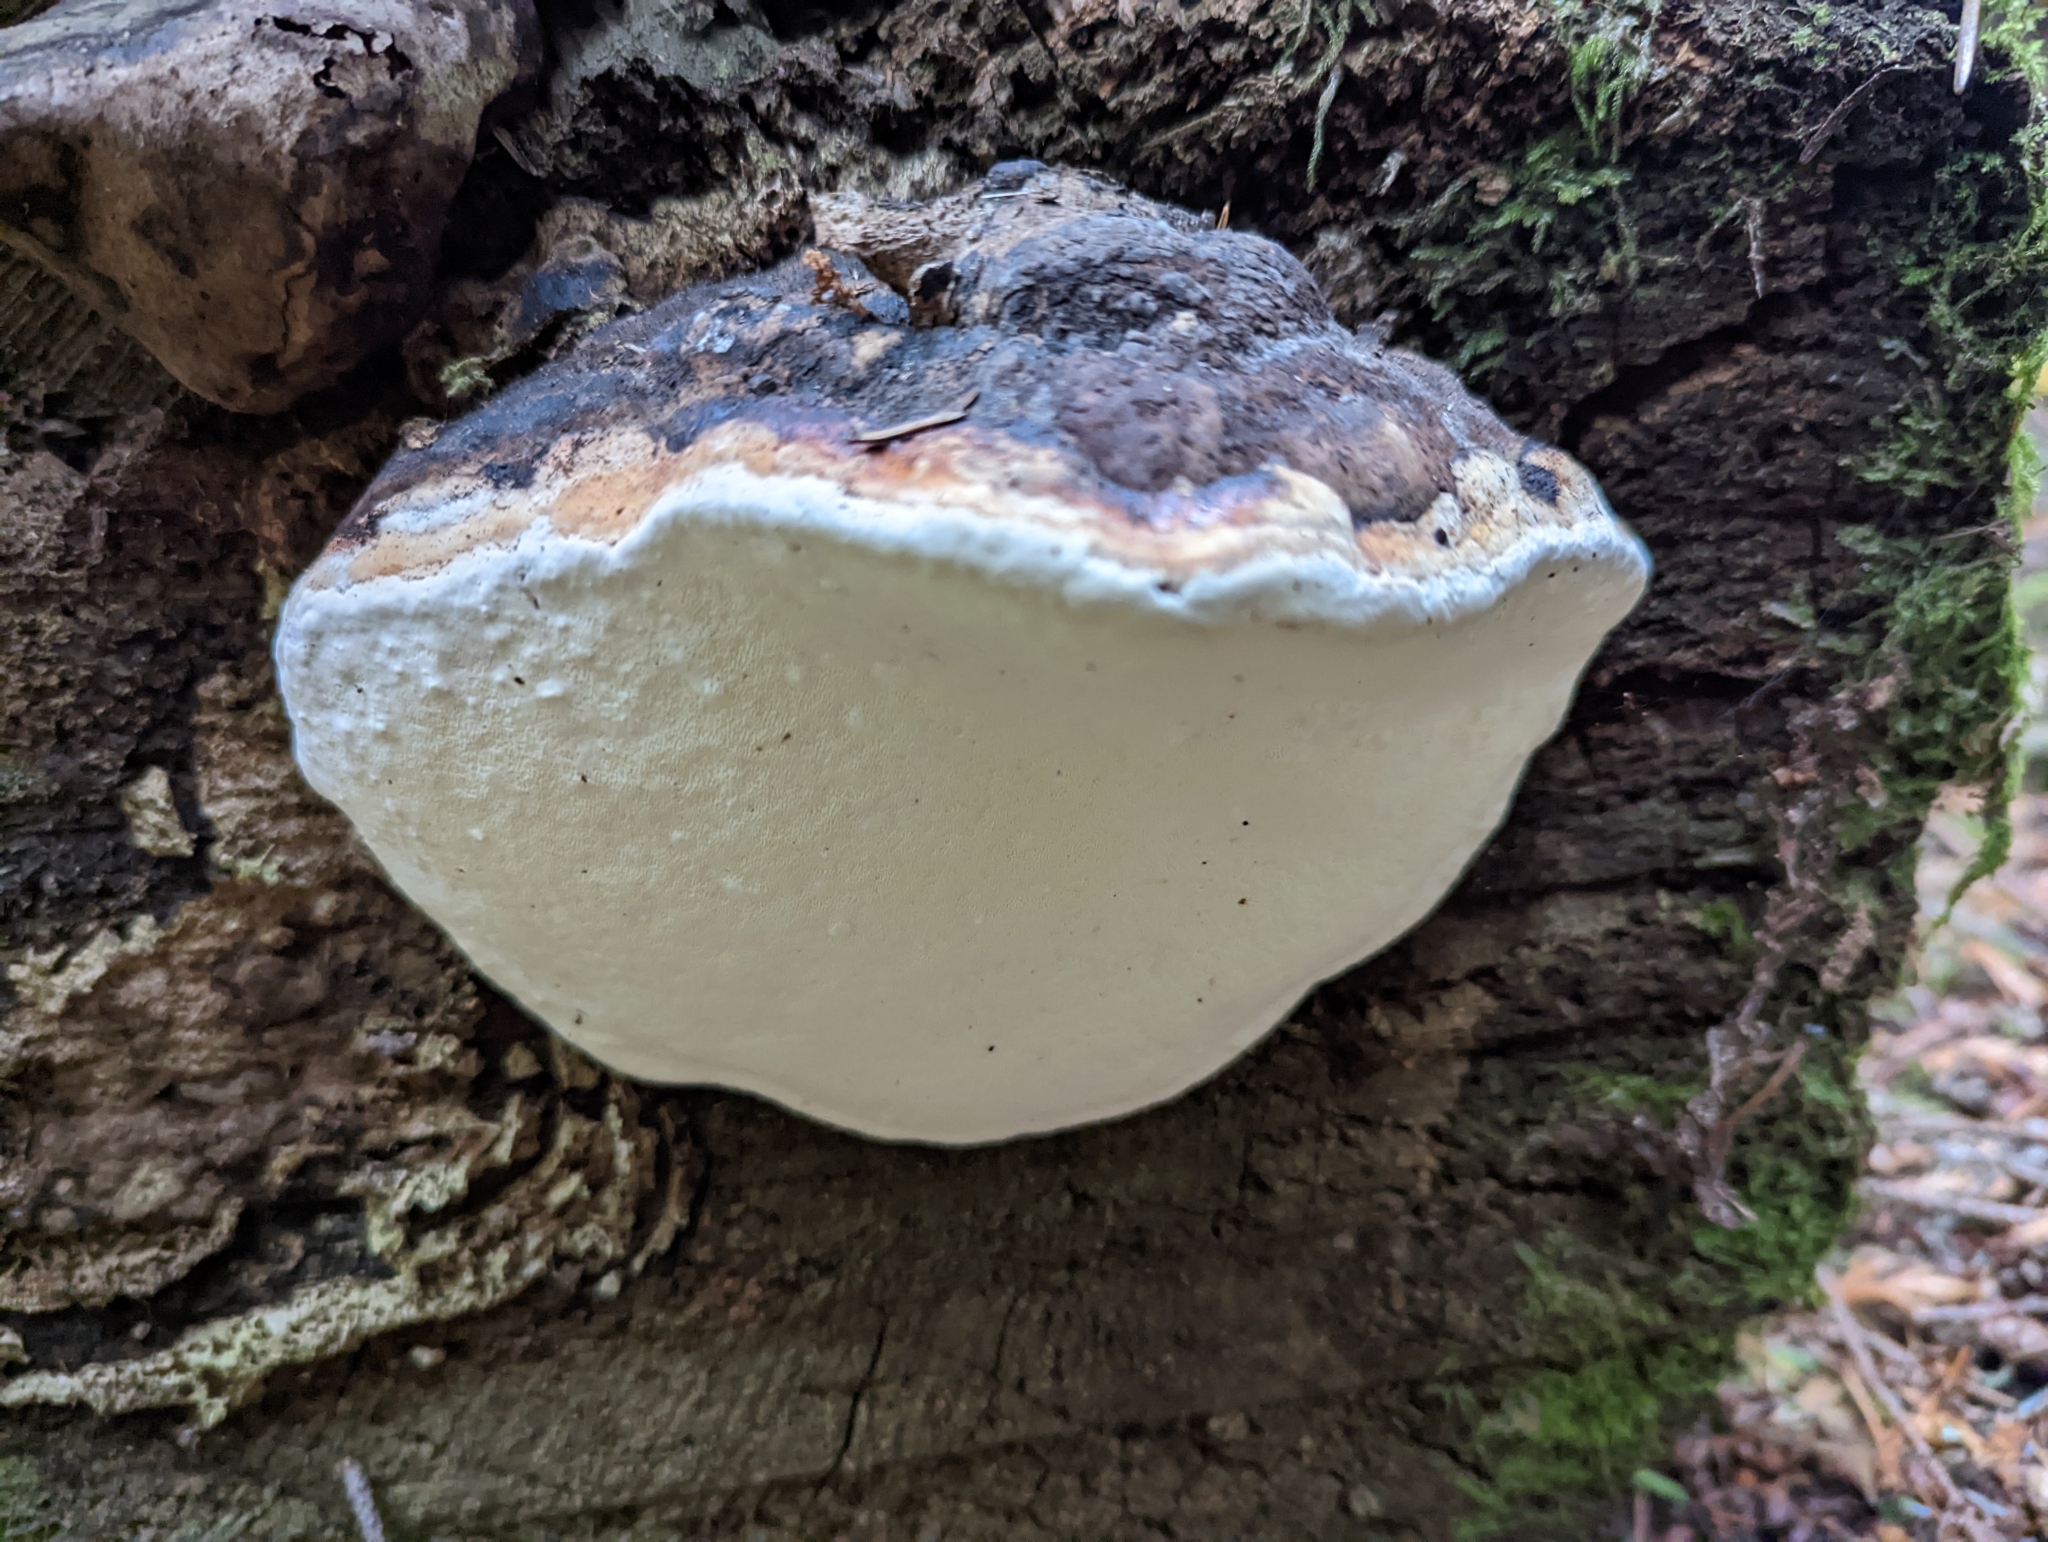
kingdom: Fungi
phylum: Basidiomycota
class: Agaricomycetes
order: Polyporales
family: Fomitopsidaceae
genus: Fomitopsis
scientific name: Fomitopsis mounceae
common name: Northern red belt
